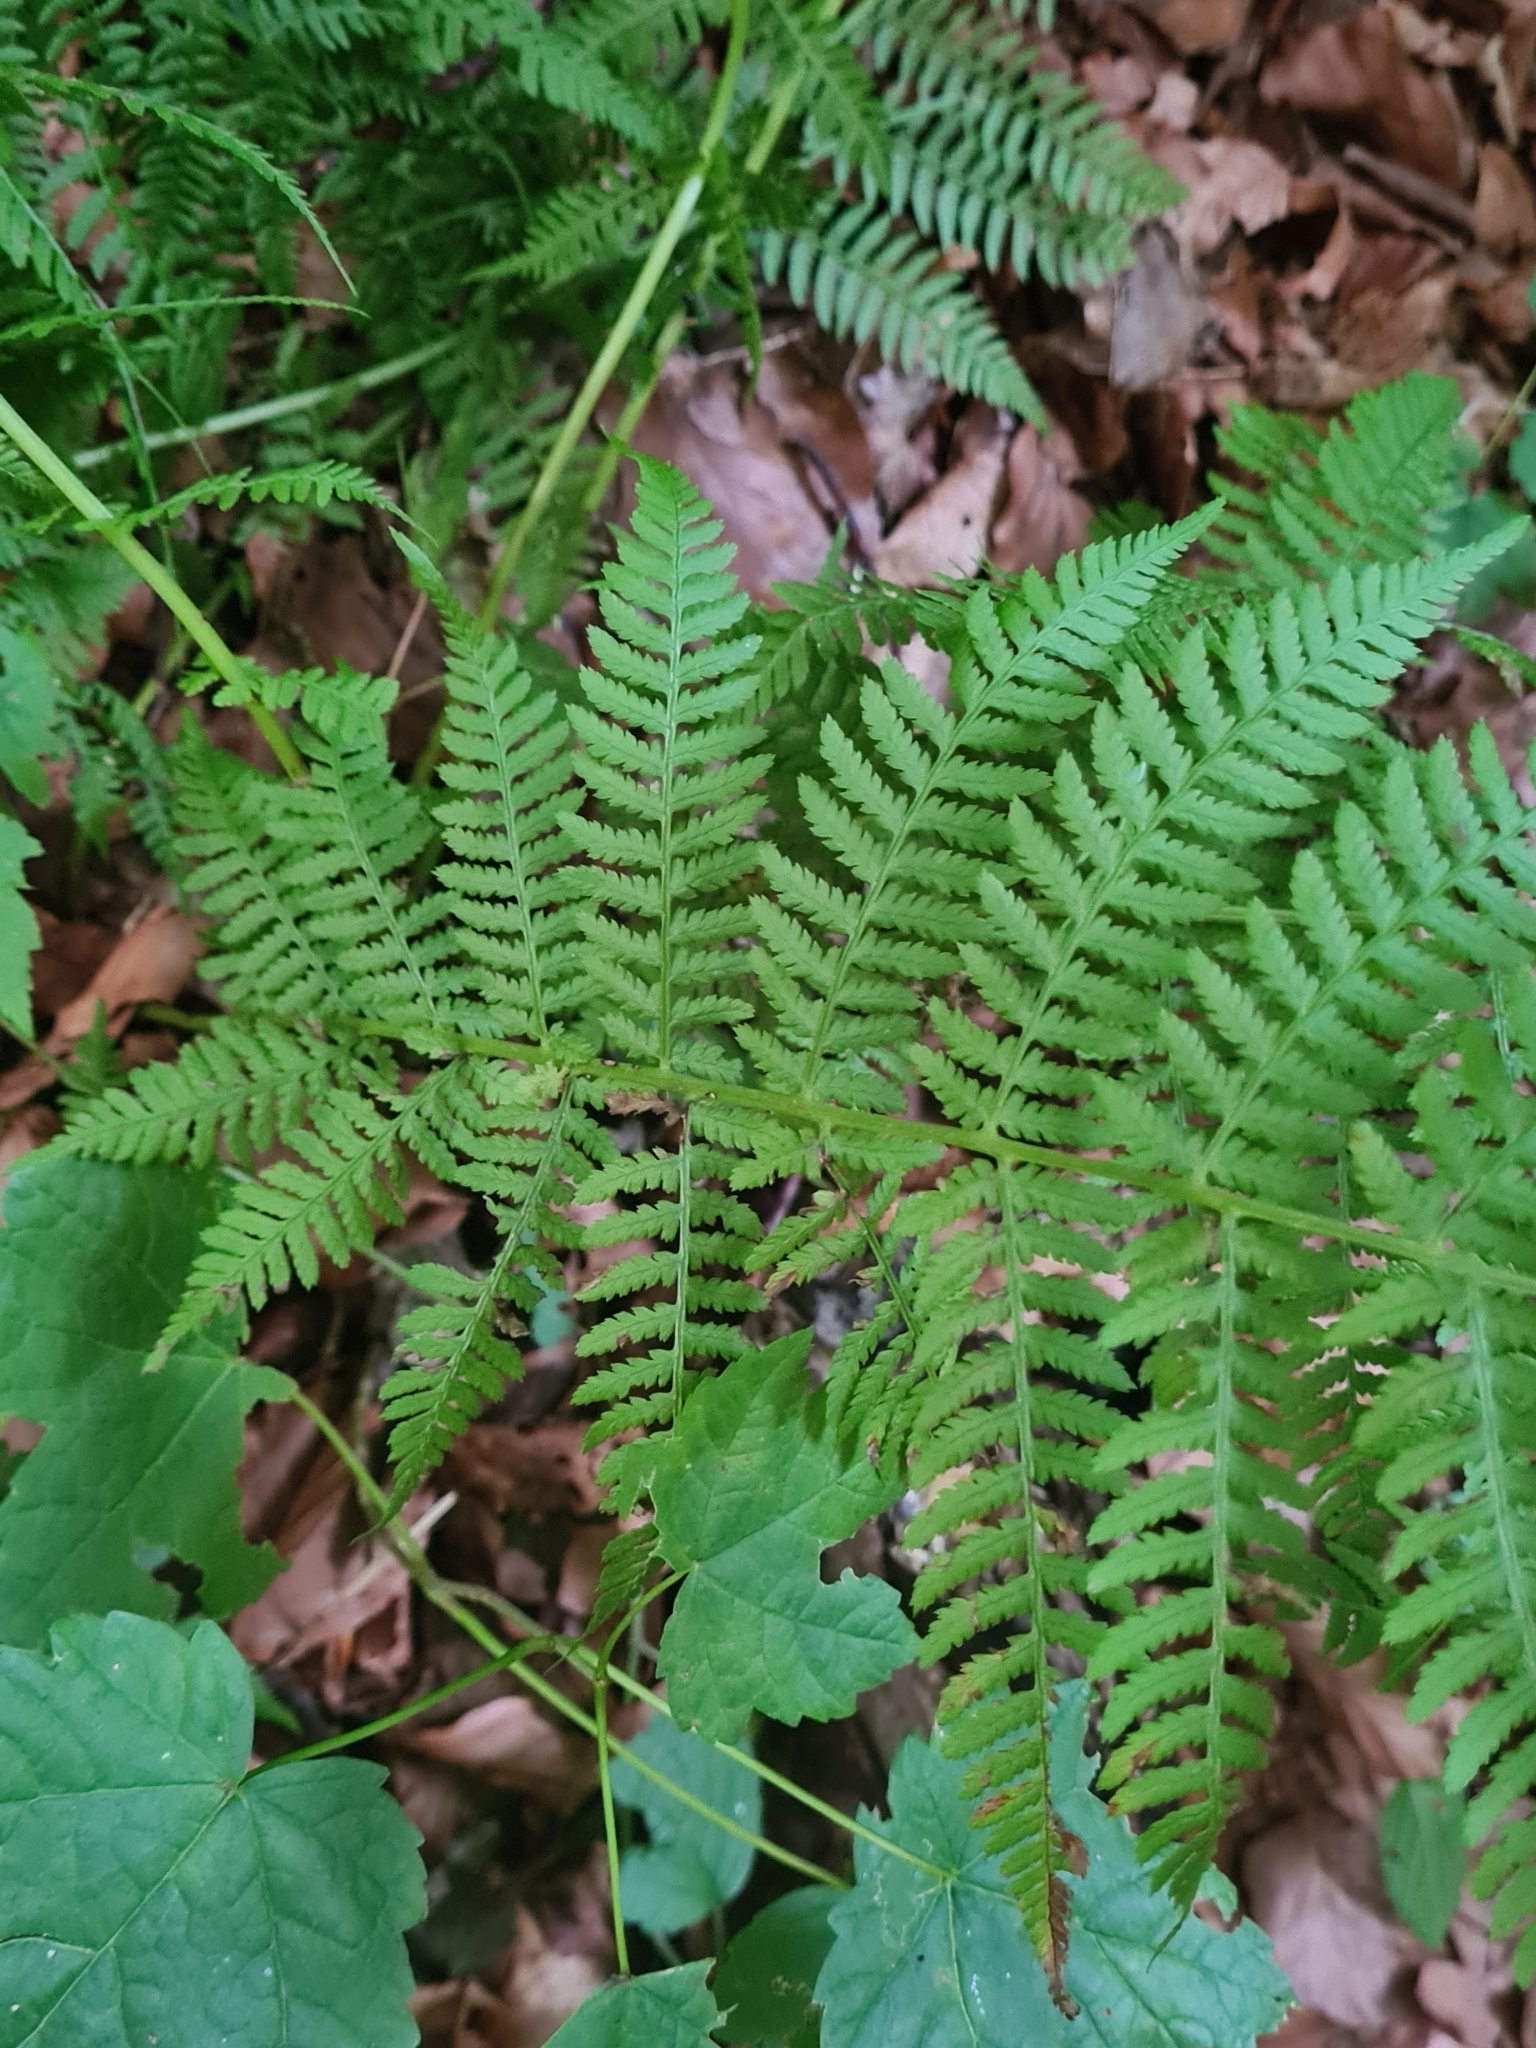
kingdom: Plantae
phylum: Tracheophyta
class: Polypodiopsida
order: Polypodiales
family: Athyriaceae
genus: Athyrium
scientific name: Athyrium filix-femina
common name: Lady fern
